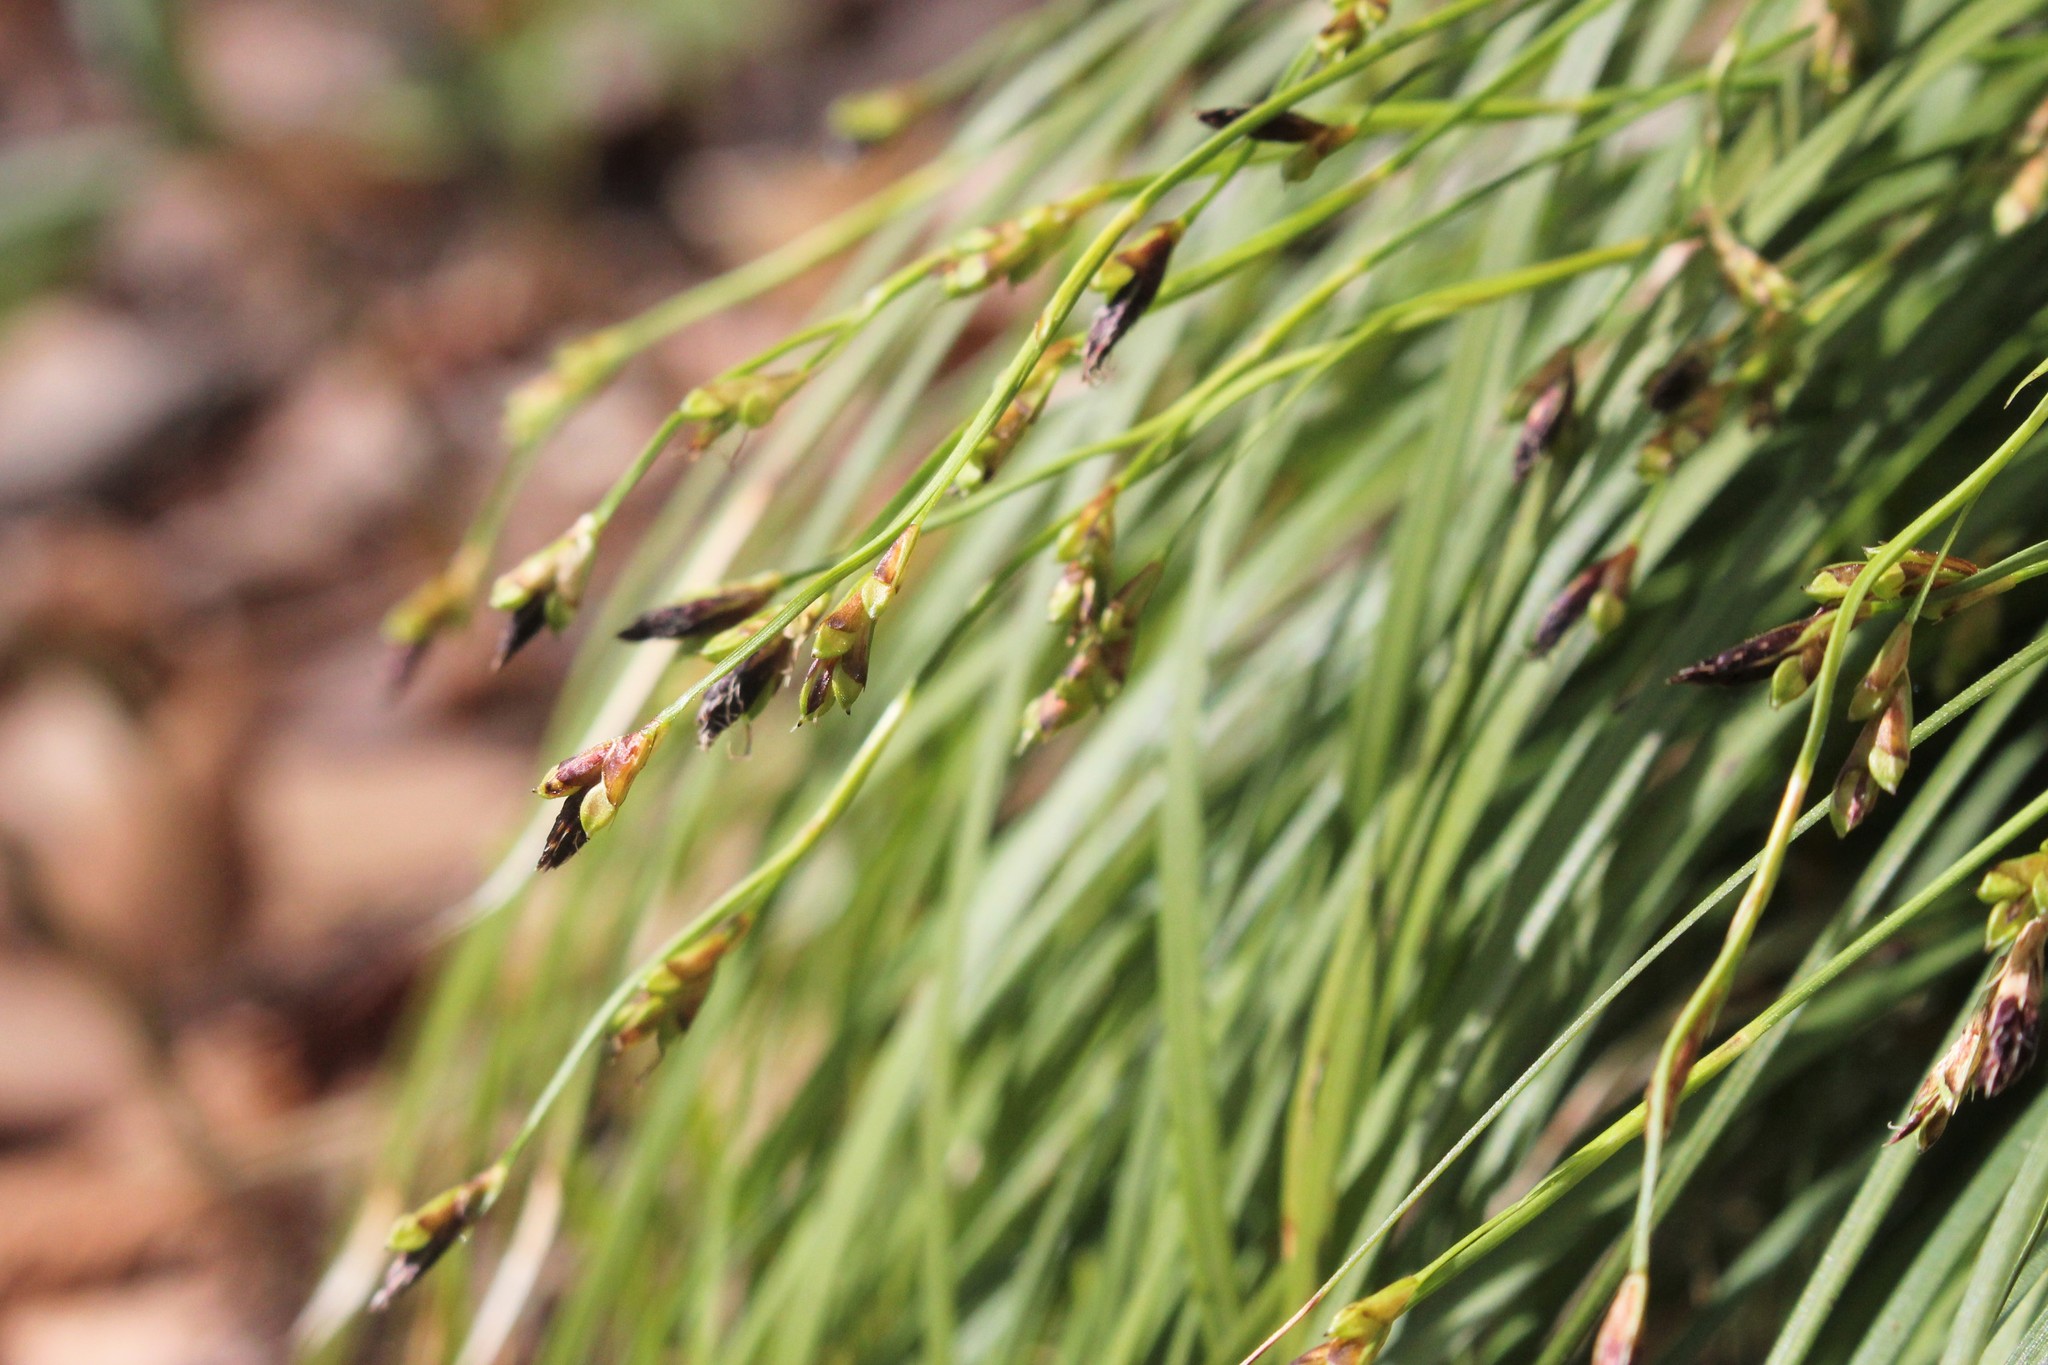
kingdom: Plantae
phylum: Tracheophyta
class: Liliopsida
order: Poales
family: Cyperaceae
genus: Carex
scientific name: Carex pedunculata
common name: Pedunculate sedge
